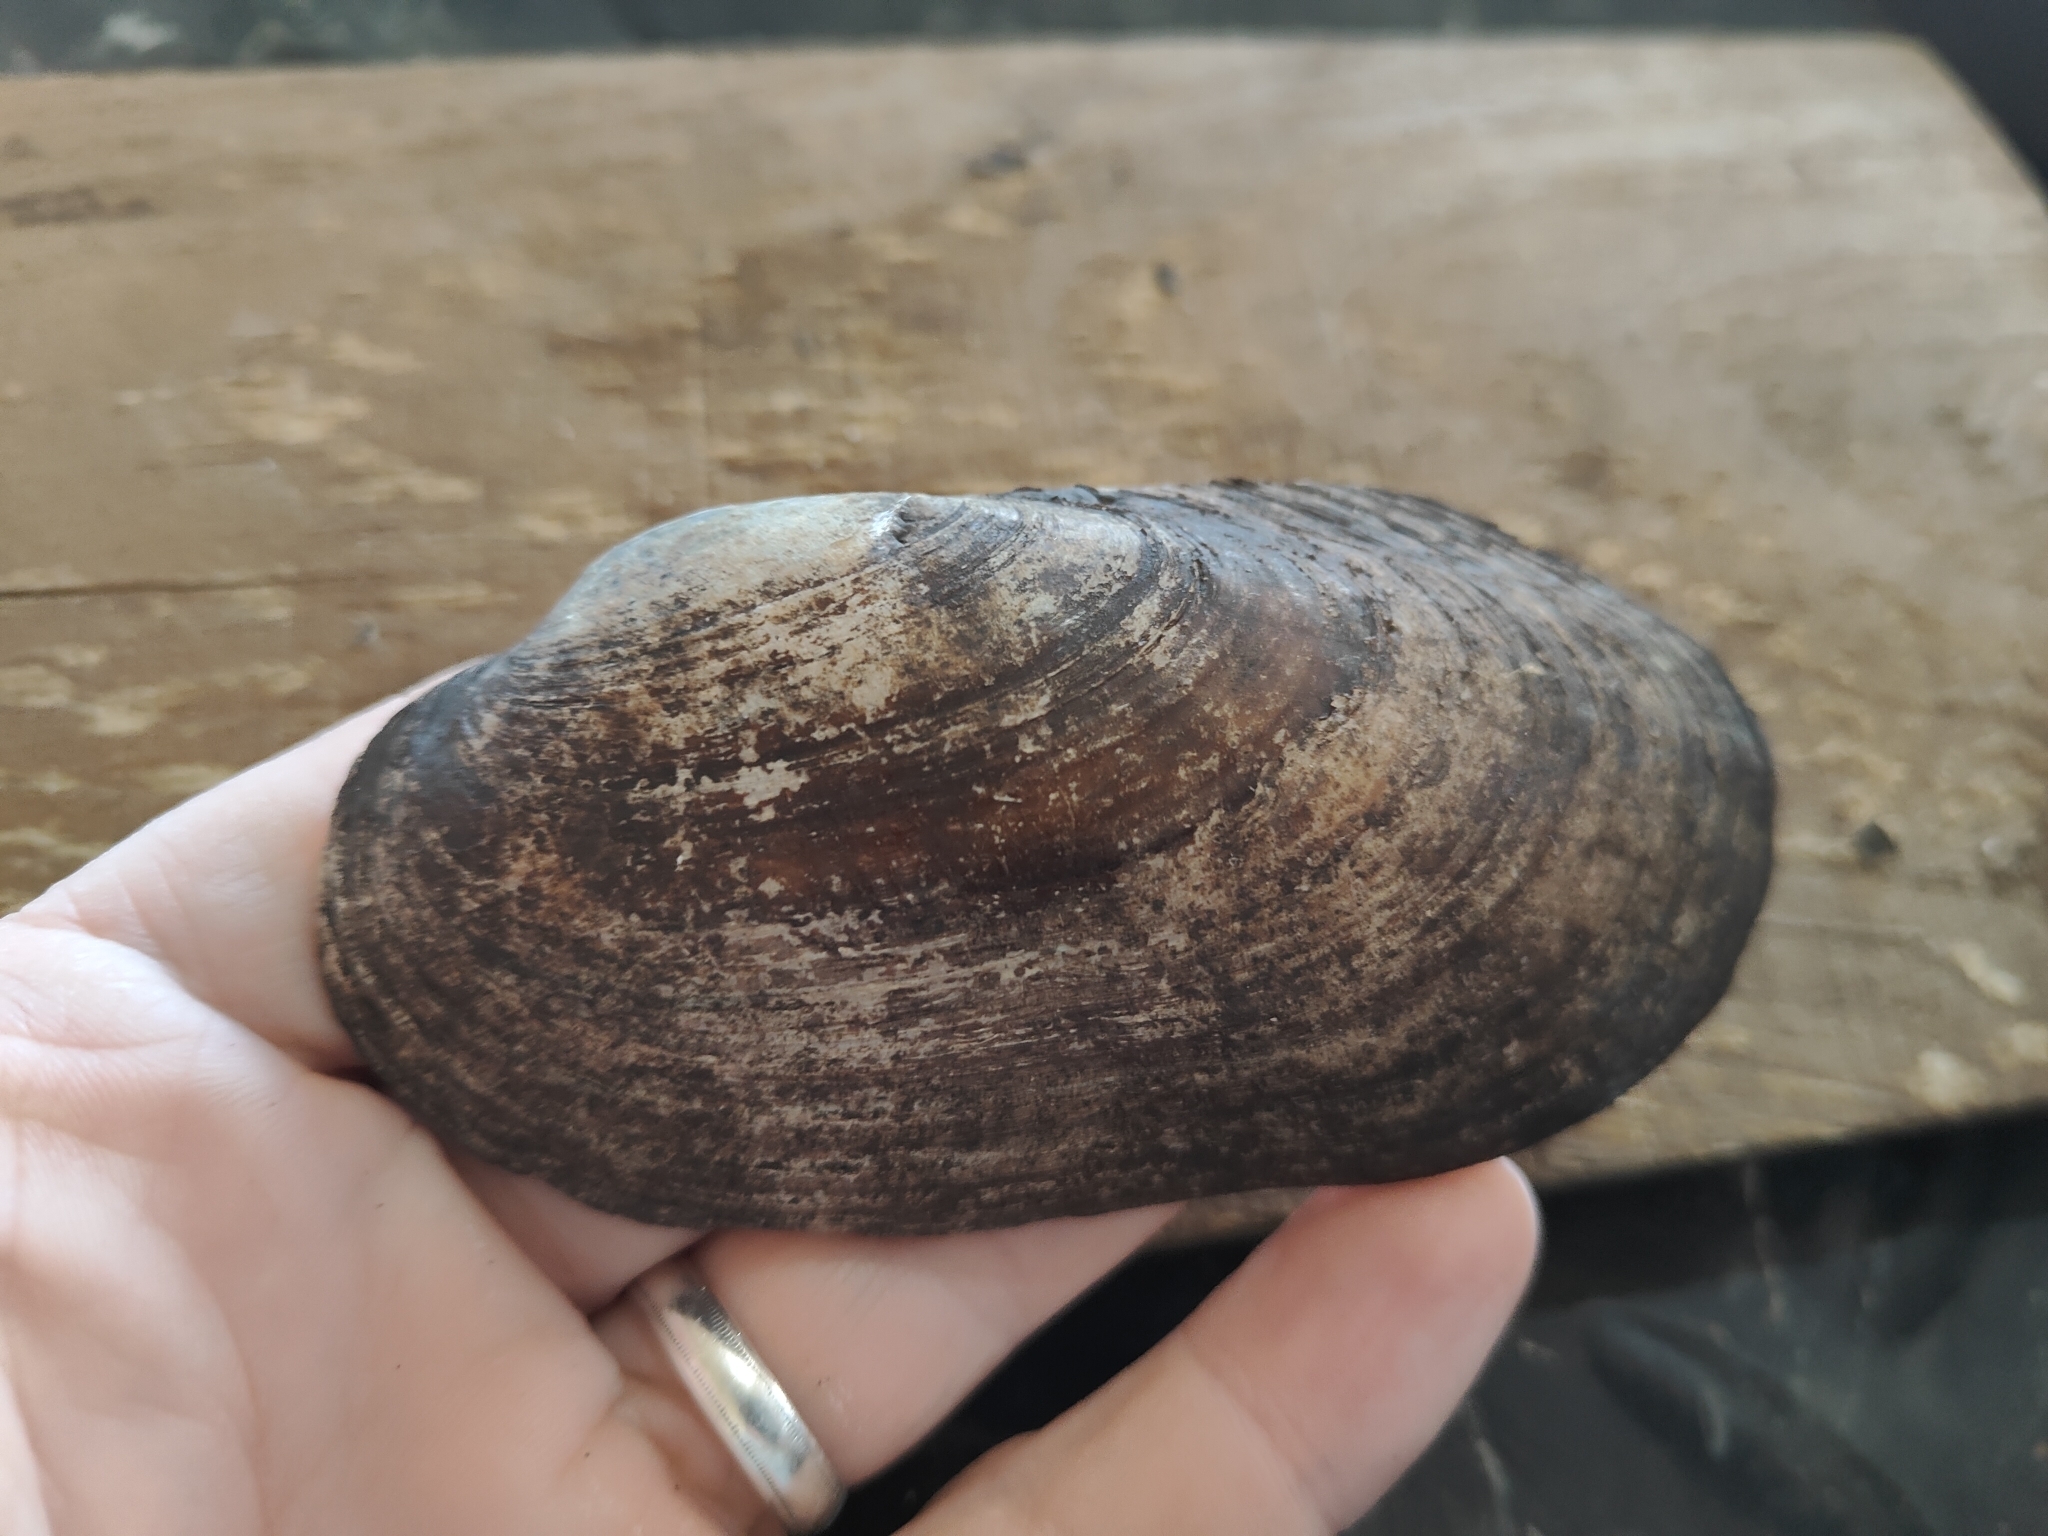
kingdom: Animalia
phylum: Mollusca
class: Bivalvia
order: Unionida
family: Unionidae
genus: Lampsilis
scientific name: Lampsilis siliquoidea
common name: Fatmucket
